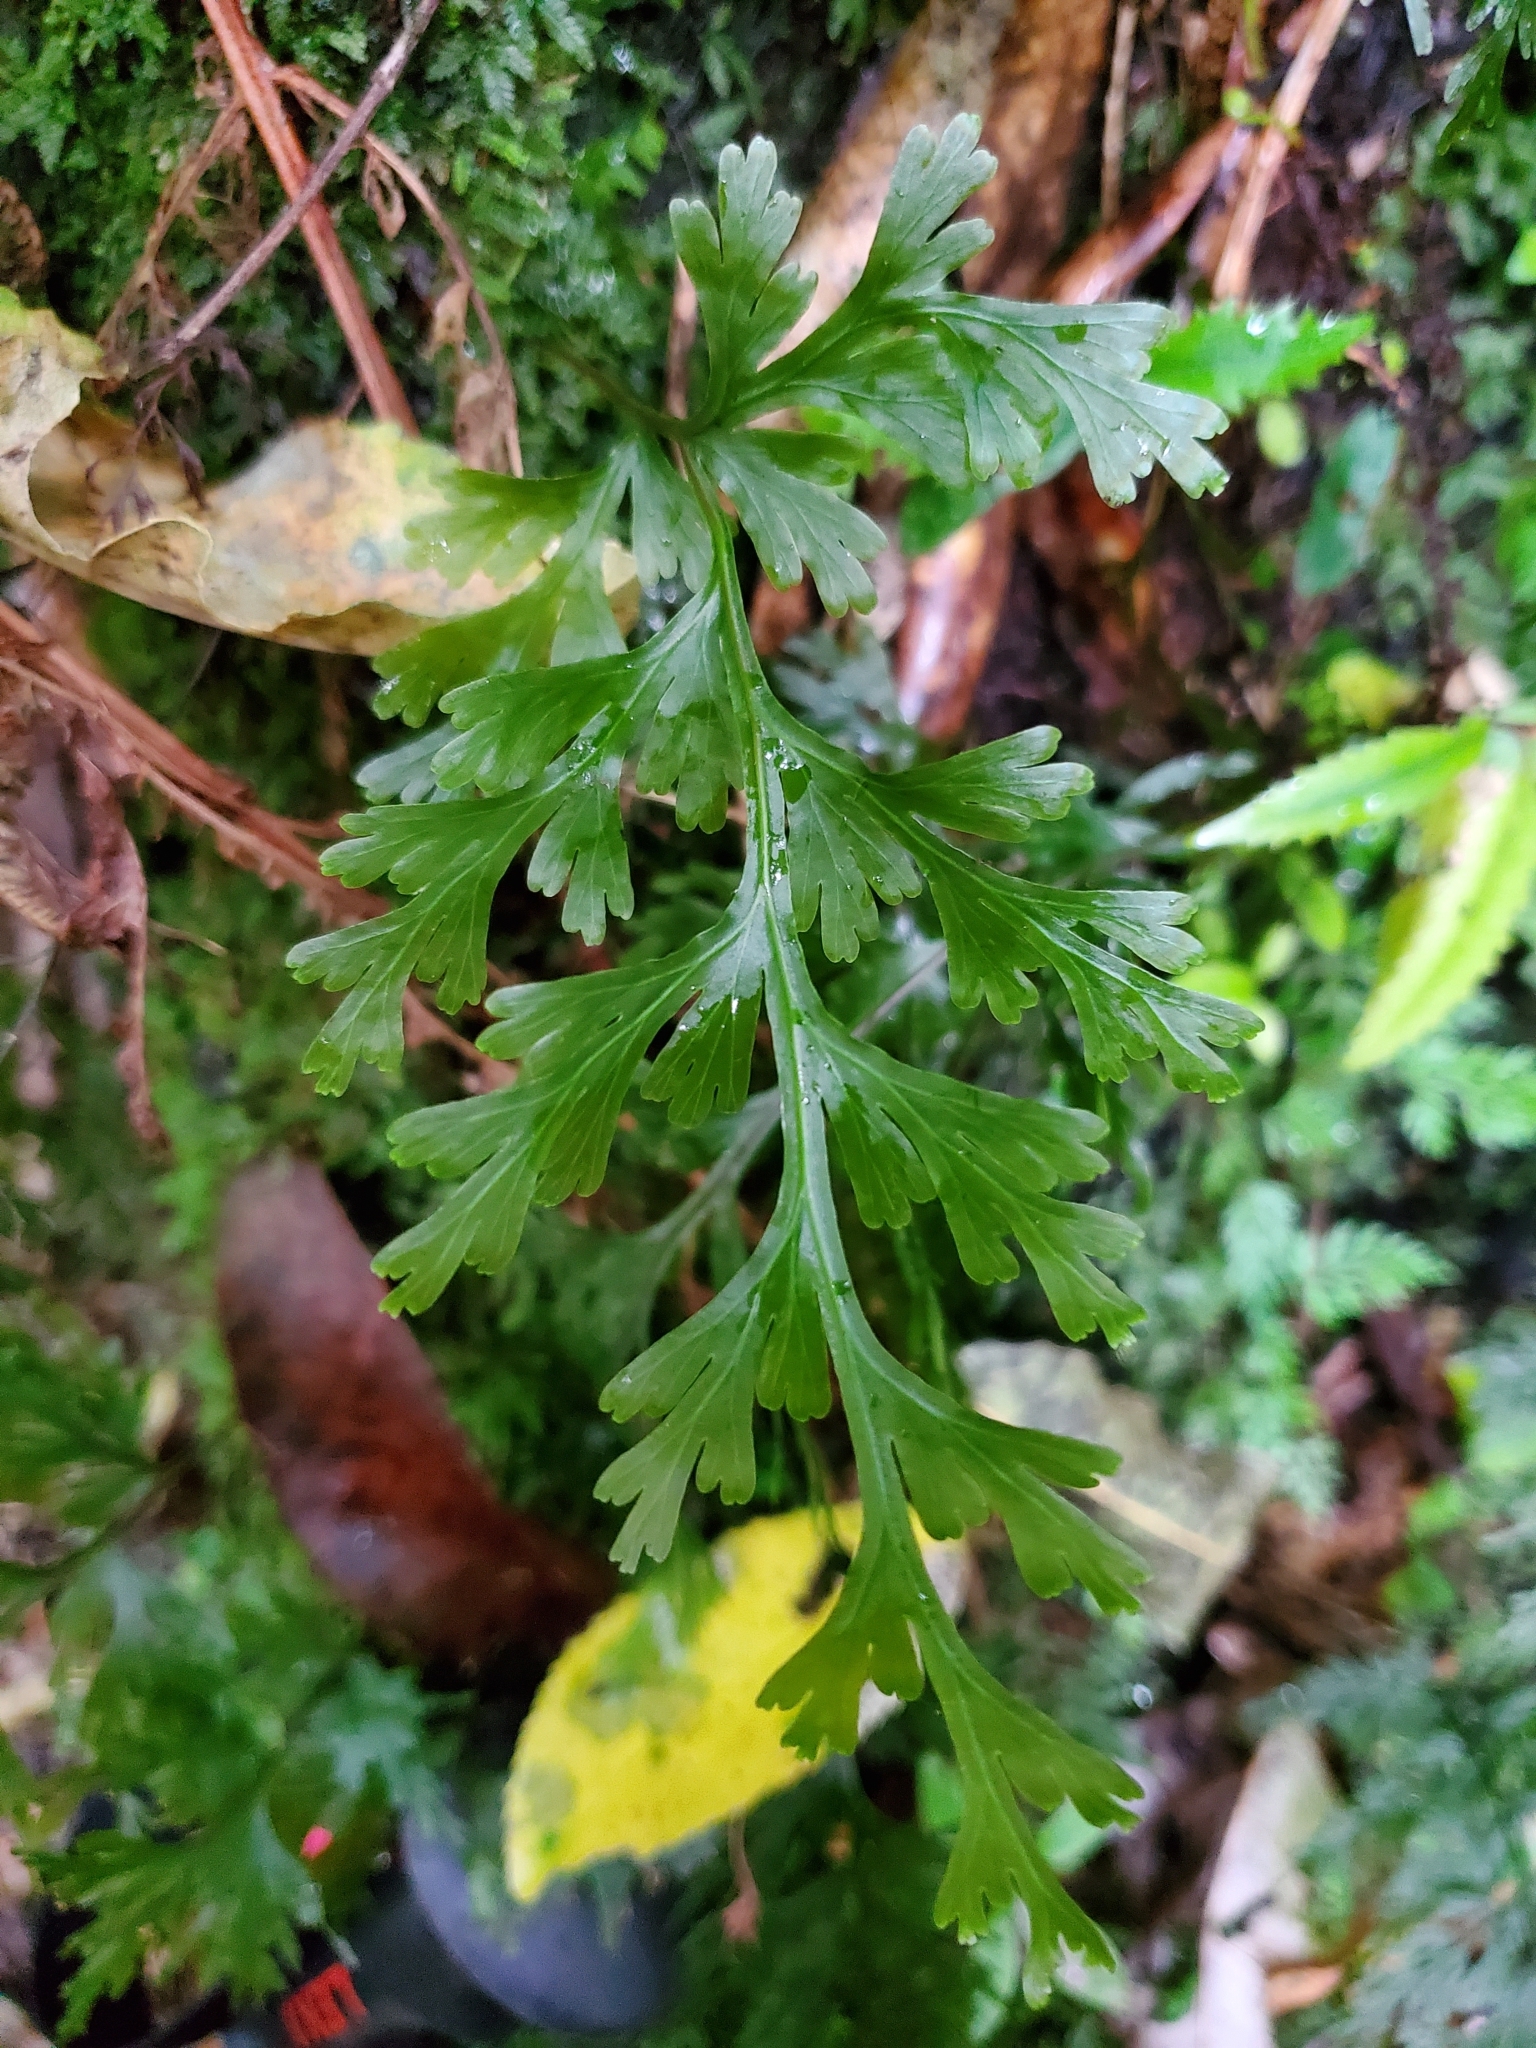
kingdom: Plantae
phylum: Tracheophyta
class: Polypodiopsida
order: Hymenophyllales
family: Hymenophyllaceae
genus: Hymenophyllum
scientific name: Hymenophyllum dilatatum
